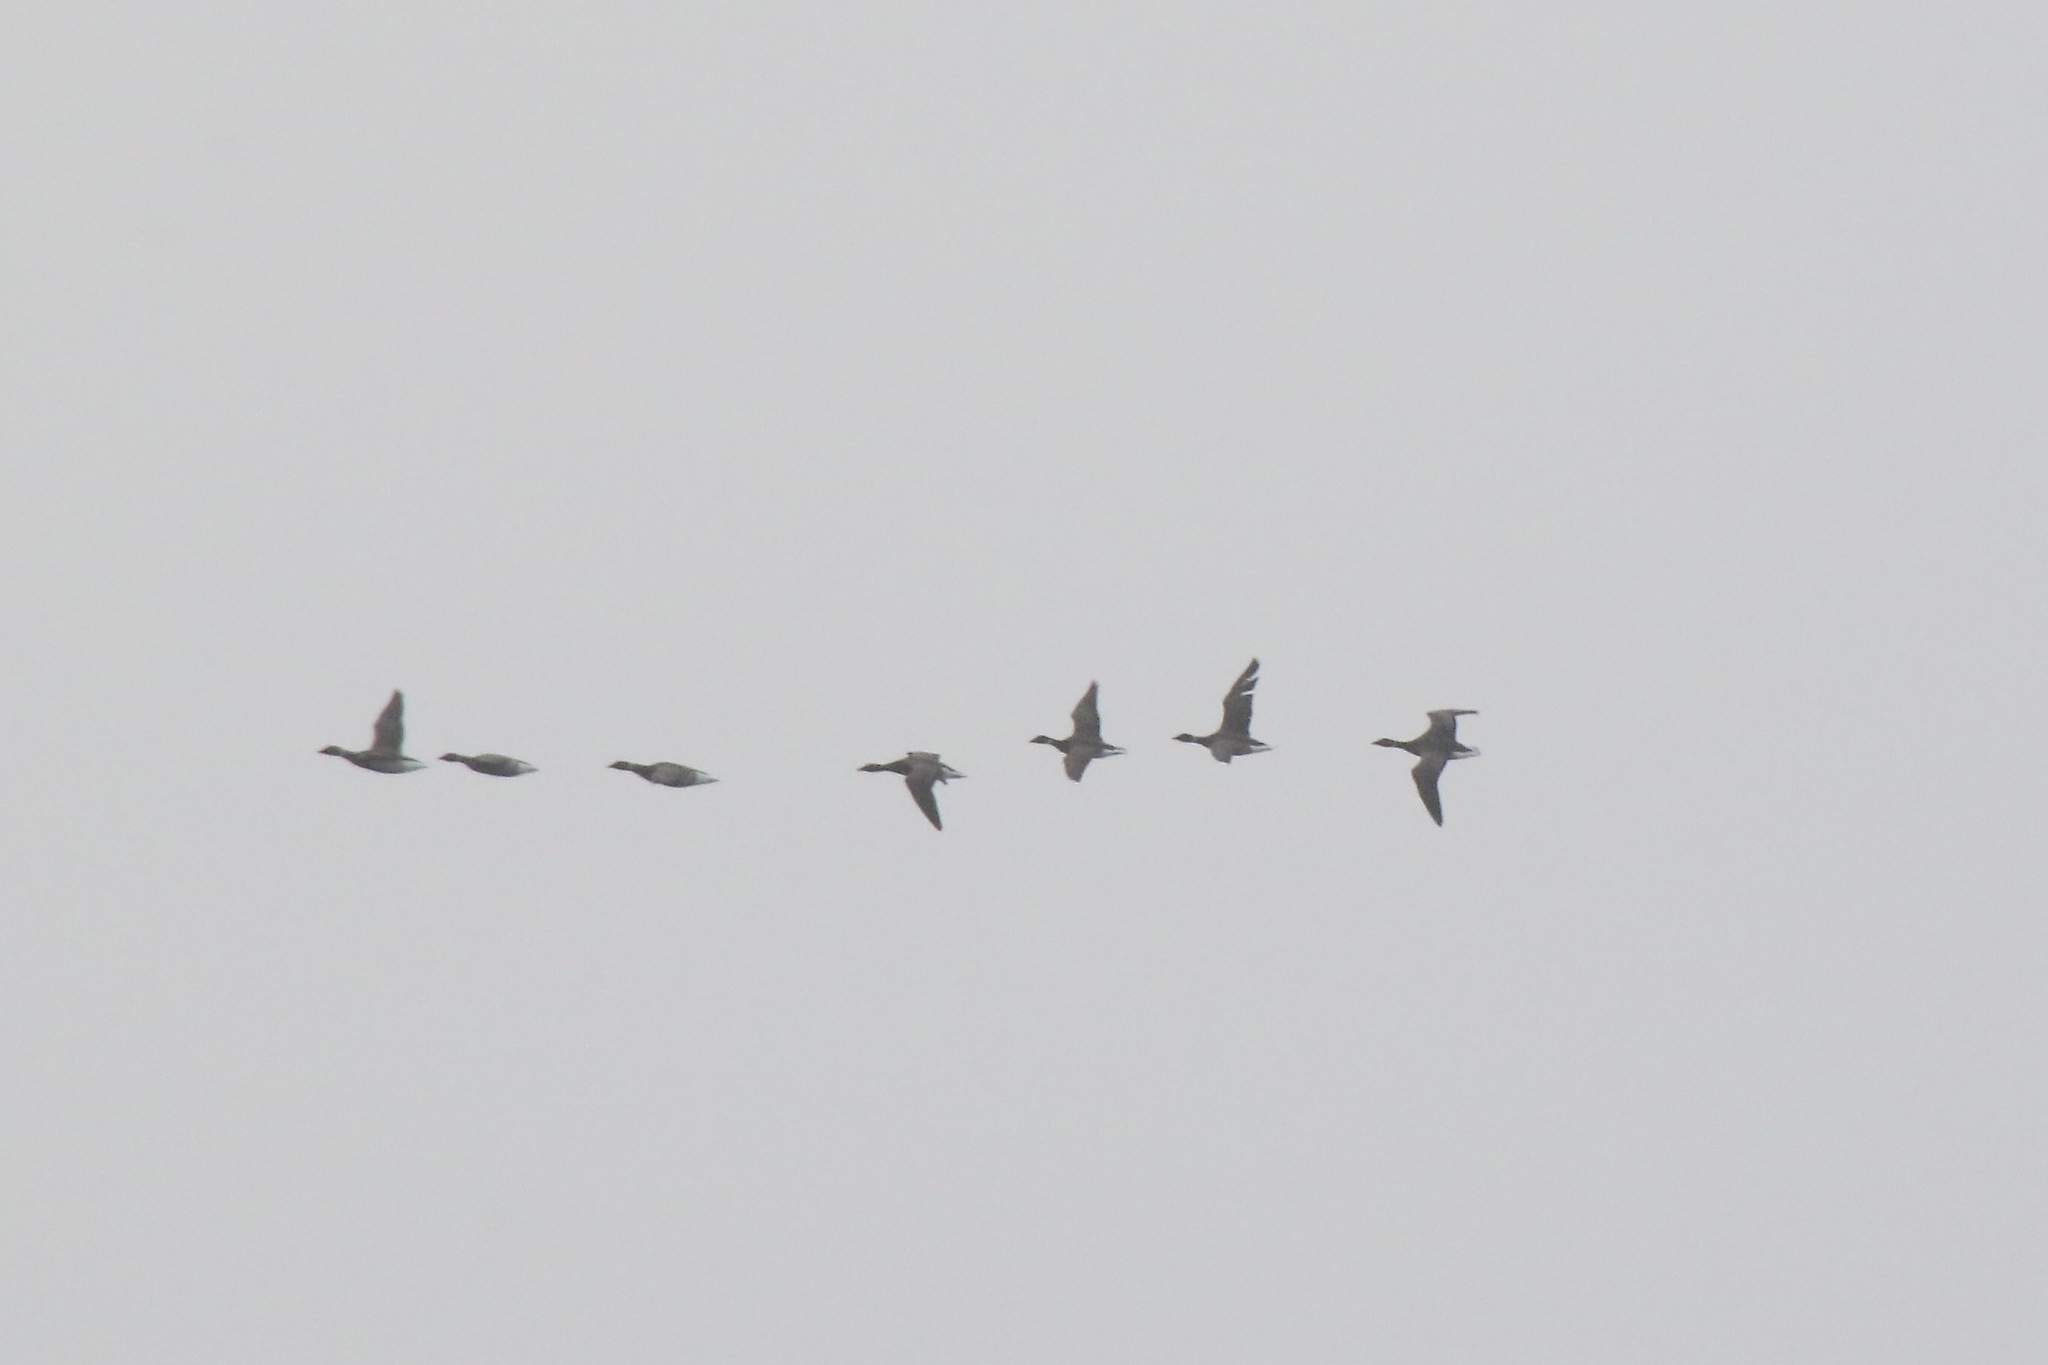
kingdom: Animalia
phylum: Chordata
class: Aves
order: Anseriformes
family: Anatidae
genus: Branta
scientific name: Branta bernicla
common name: Brant goose
